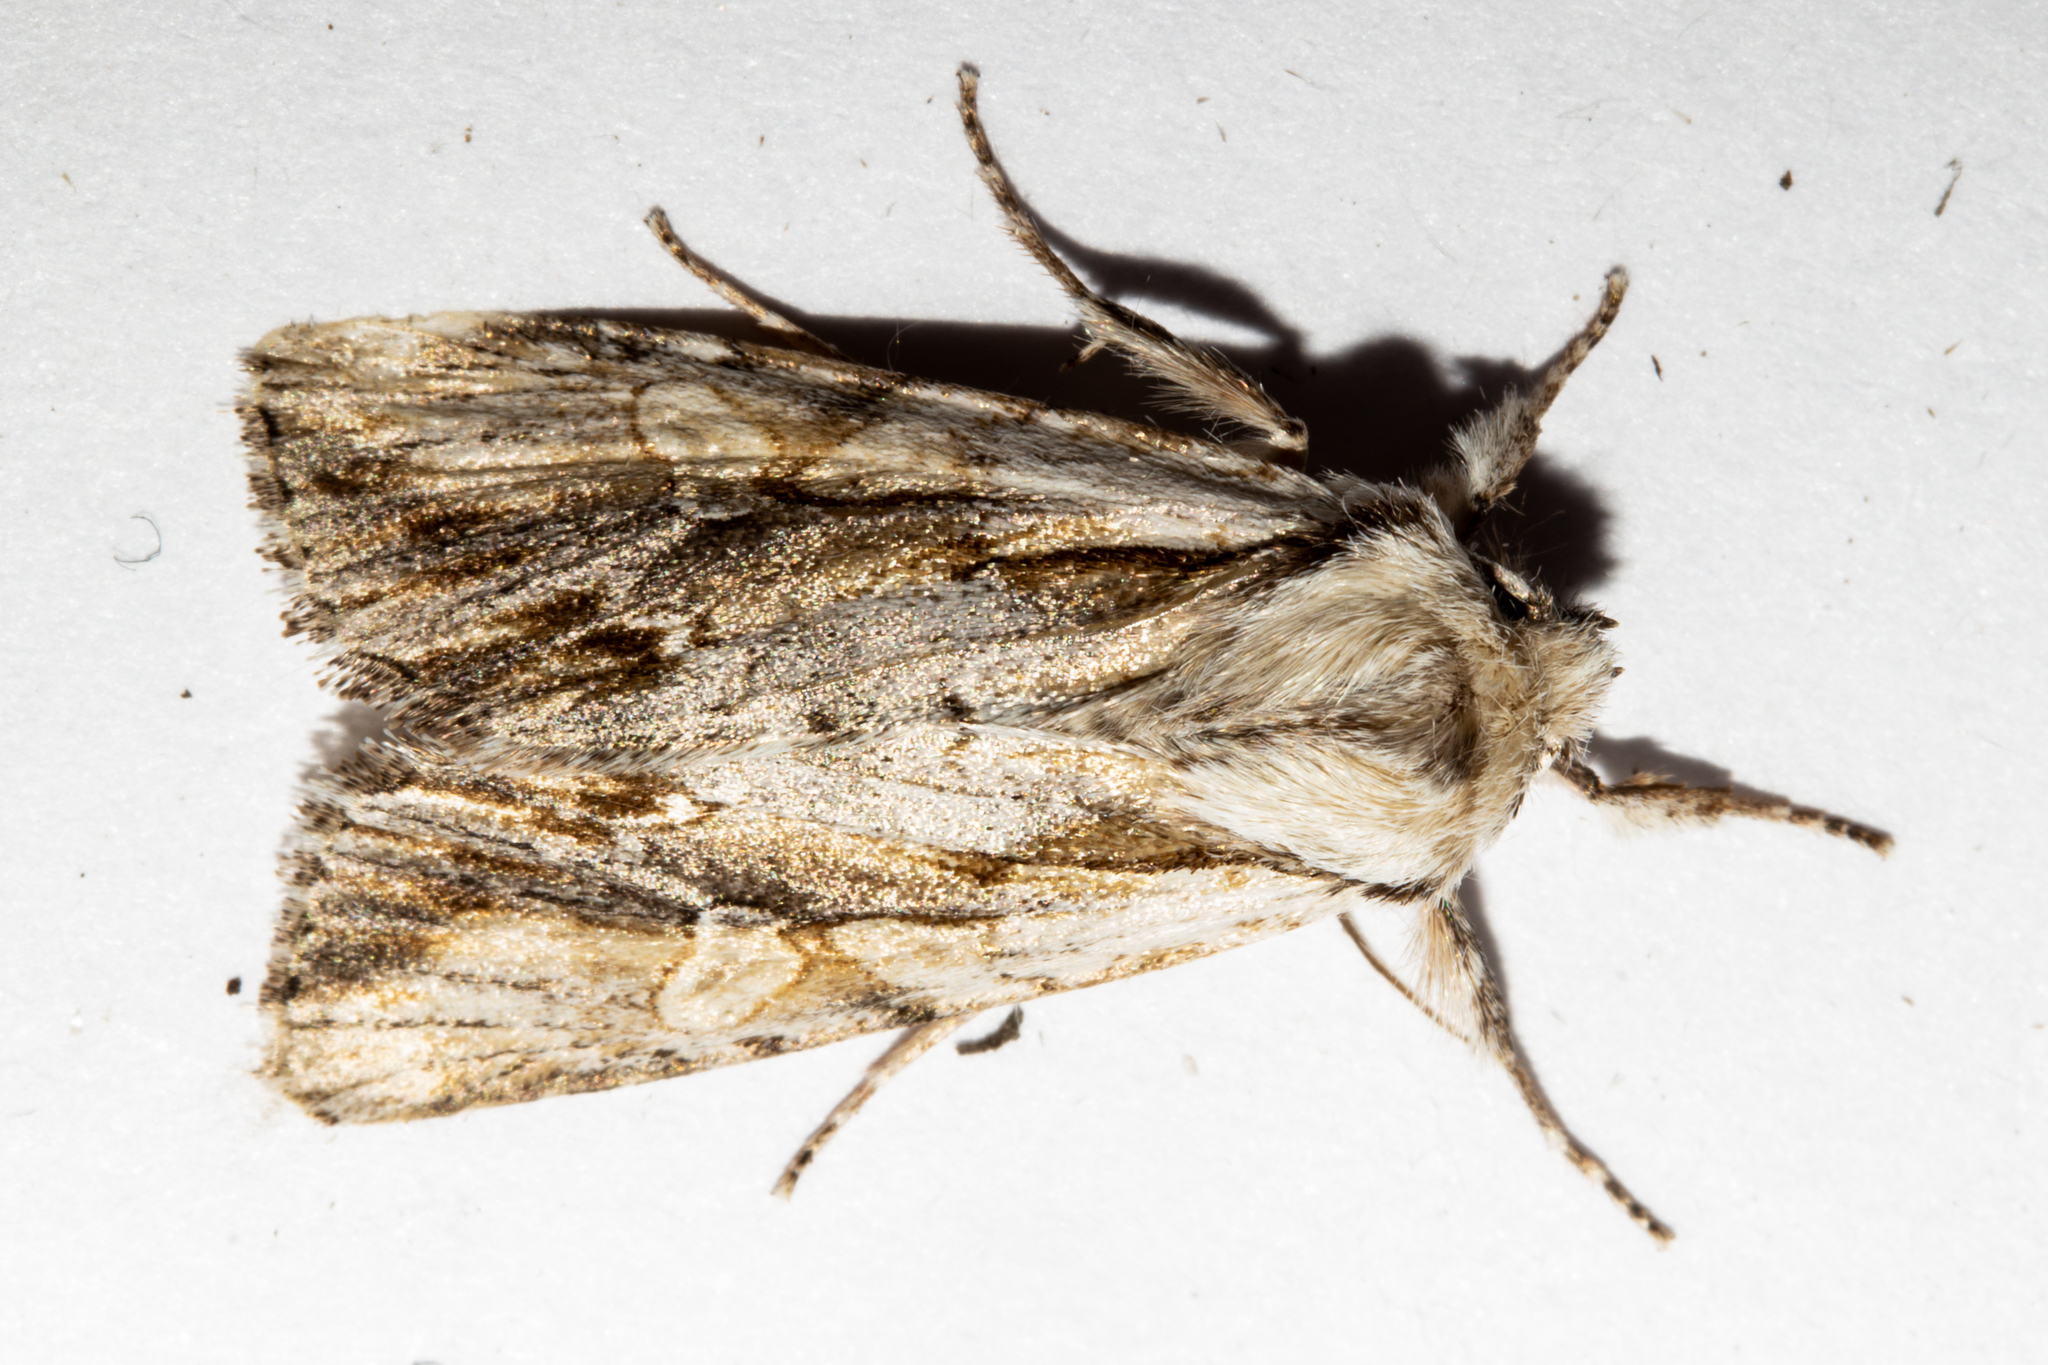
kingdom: Animalia
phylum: Arthropoda
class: Insecta
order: Lepidoptera
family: Noctuidae
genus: Ichneutica
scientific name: Ichneutica
